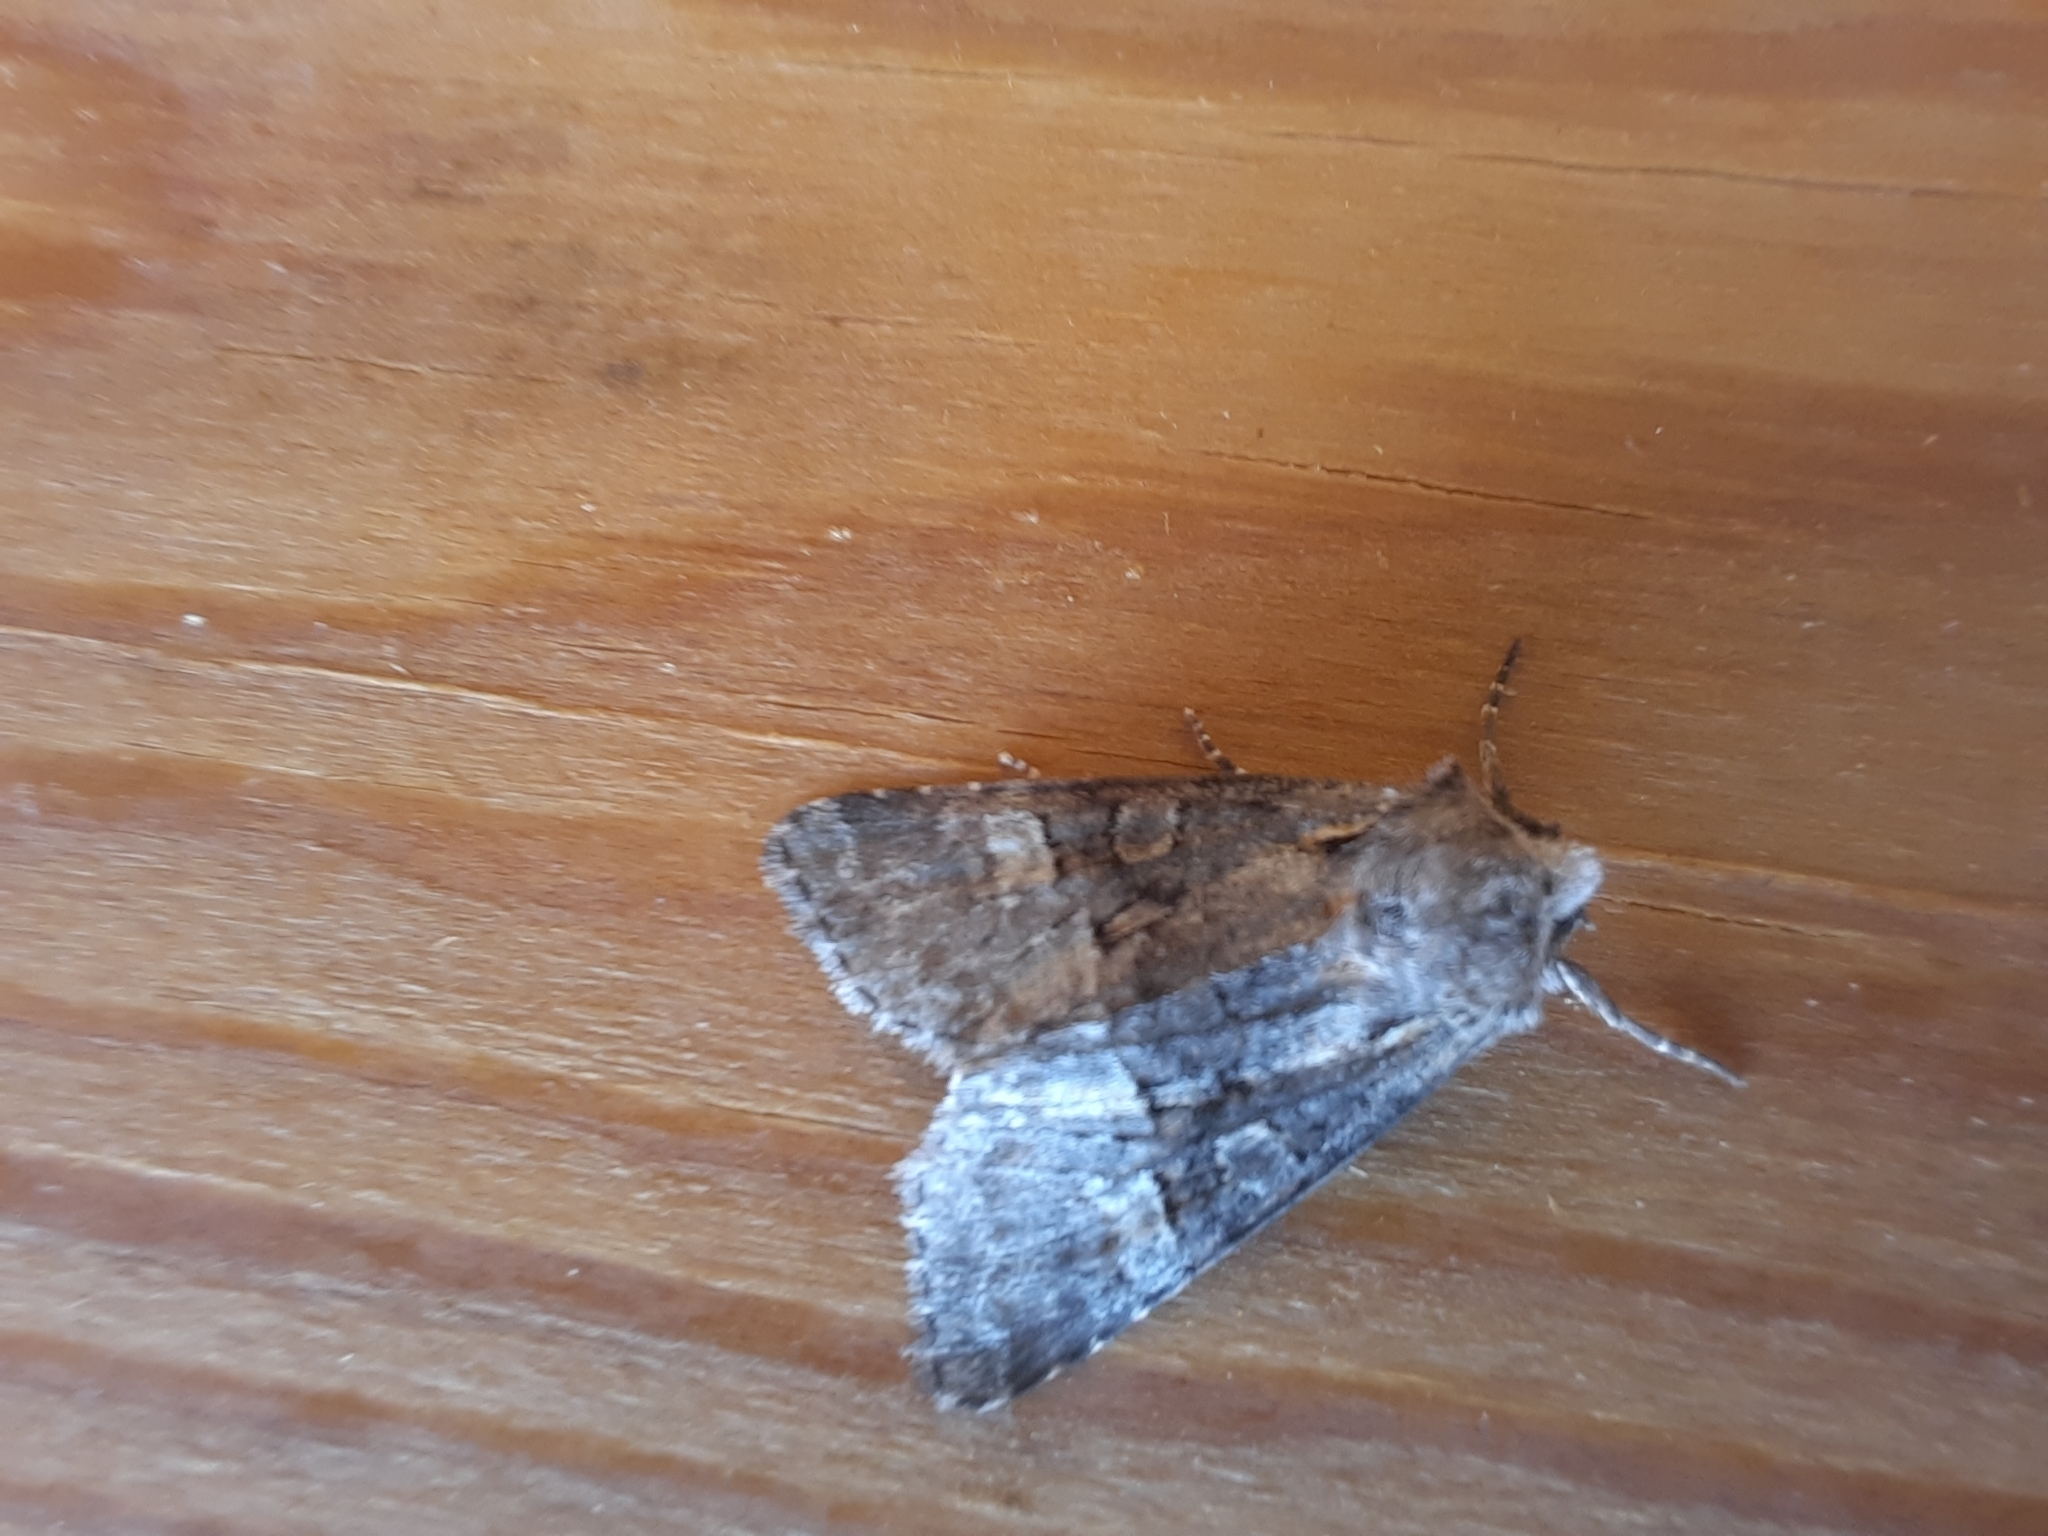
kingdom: Animalia
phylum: Arthropoda
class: Insecta
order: Lepidoptera
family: Noctuidae
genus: Brachylomia
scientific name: Brachylomia viminalis
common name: Minor shoulder-knot
